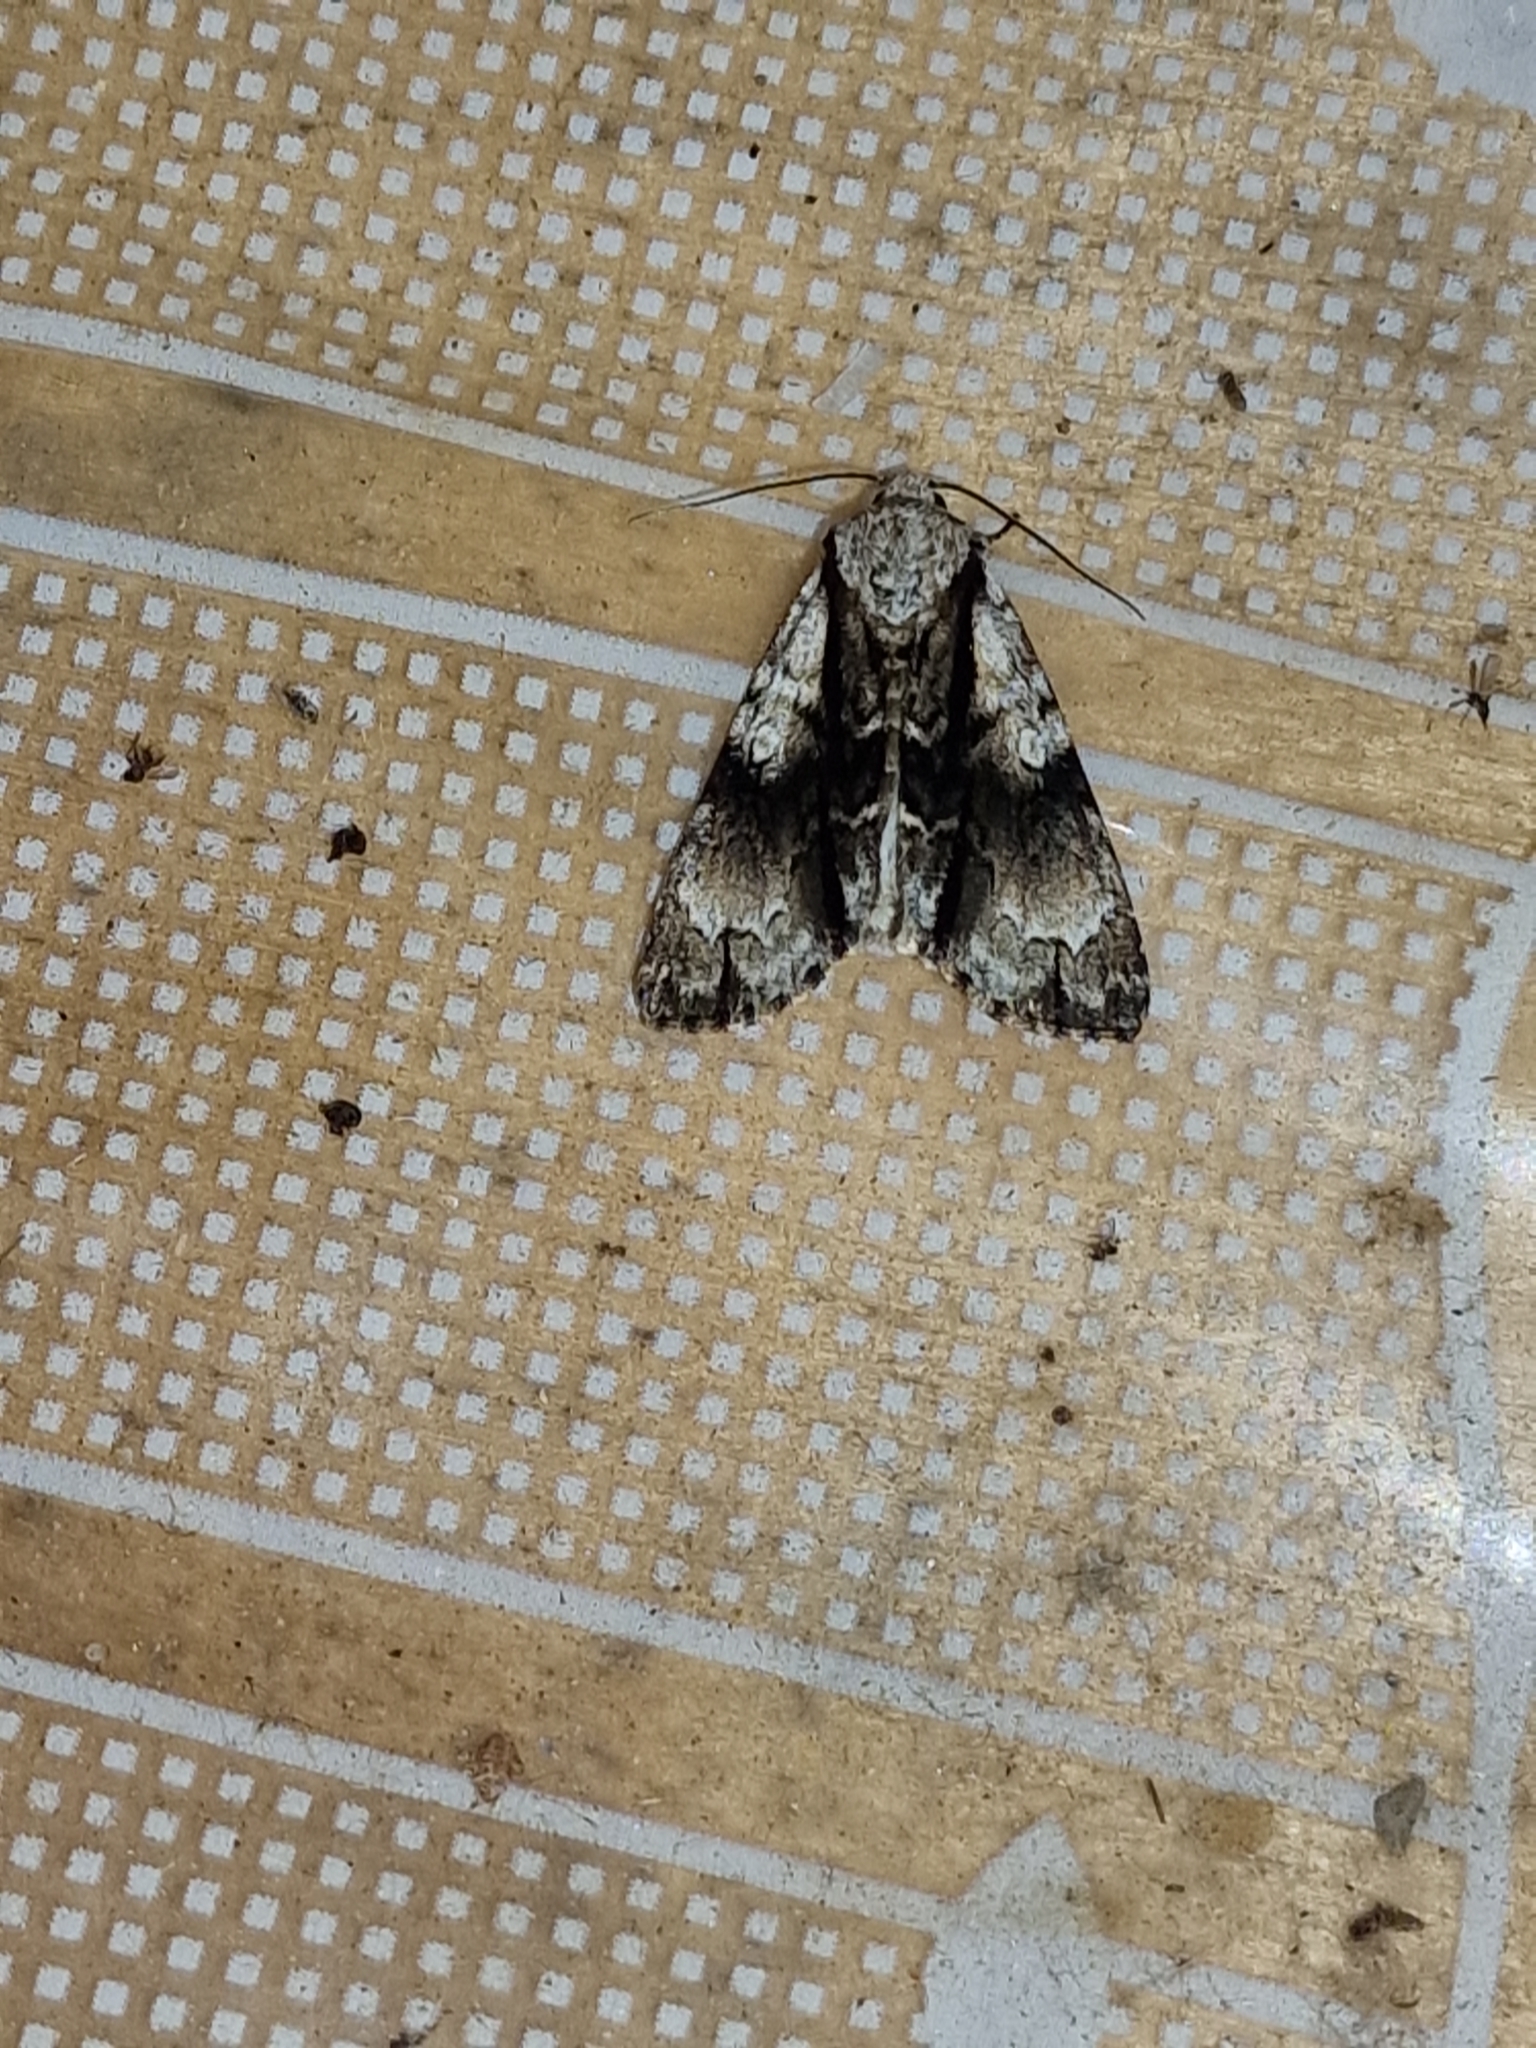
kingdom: Animalia
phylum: Arthropoda
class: Insecta
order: Lepidoptera
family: Noctuidae
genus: Acronicta
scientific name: Acronicta alni
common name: Alder moth
